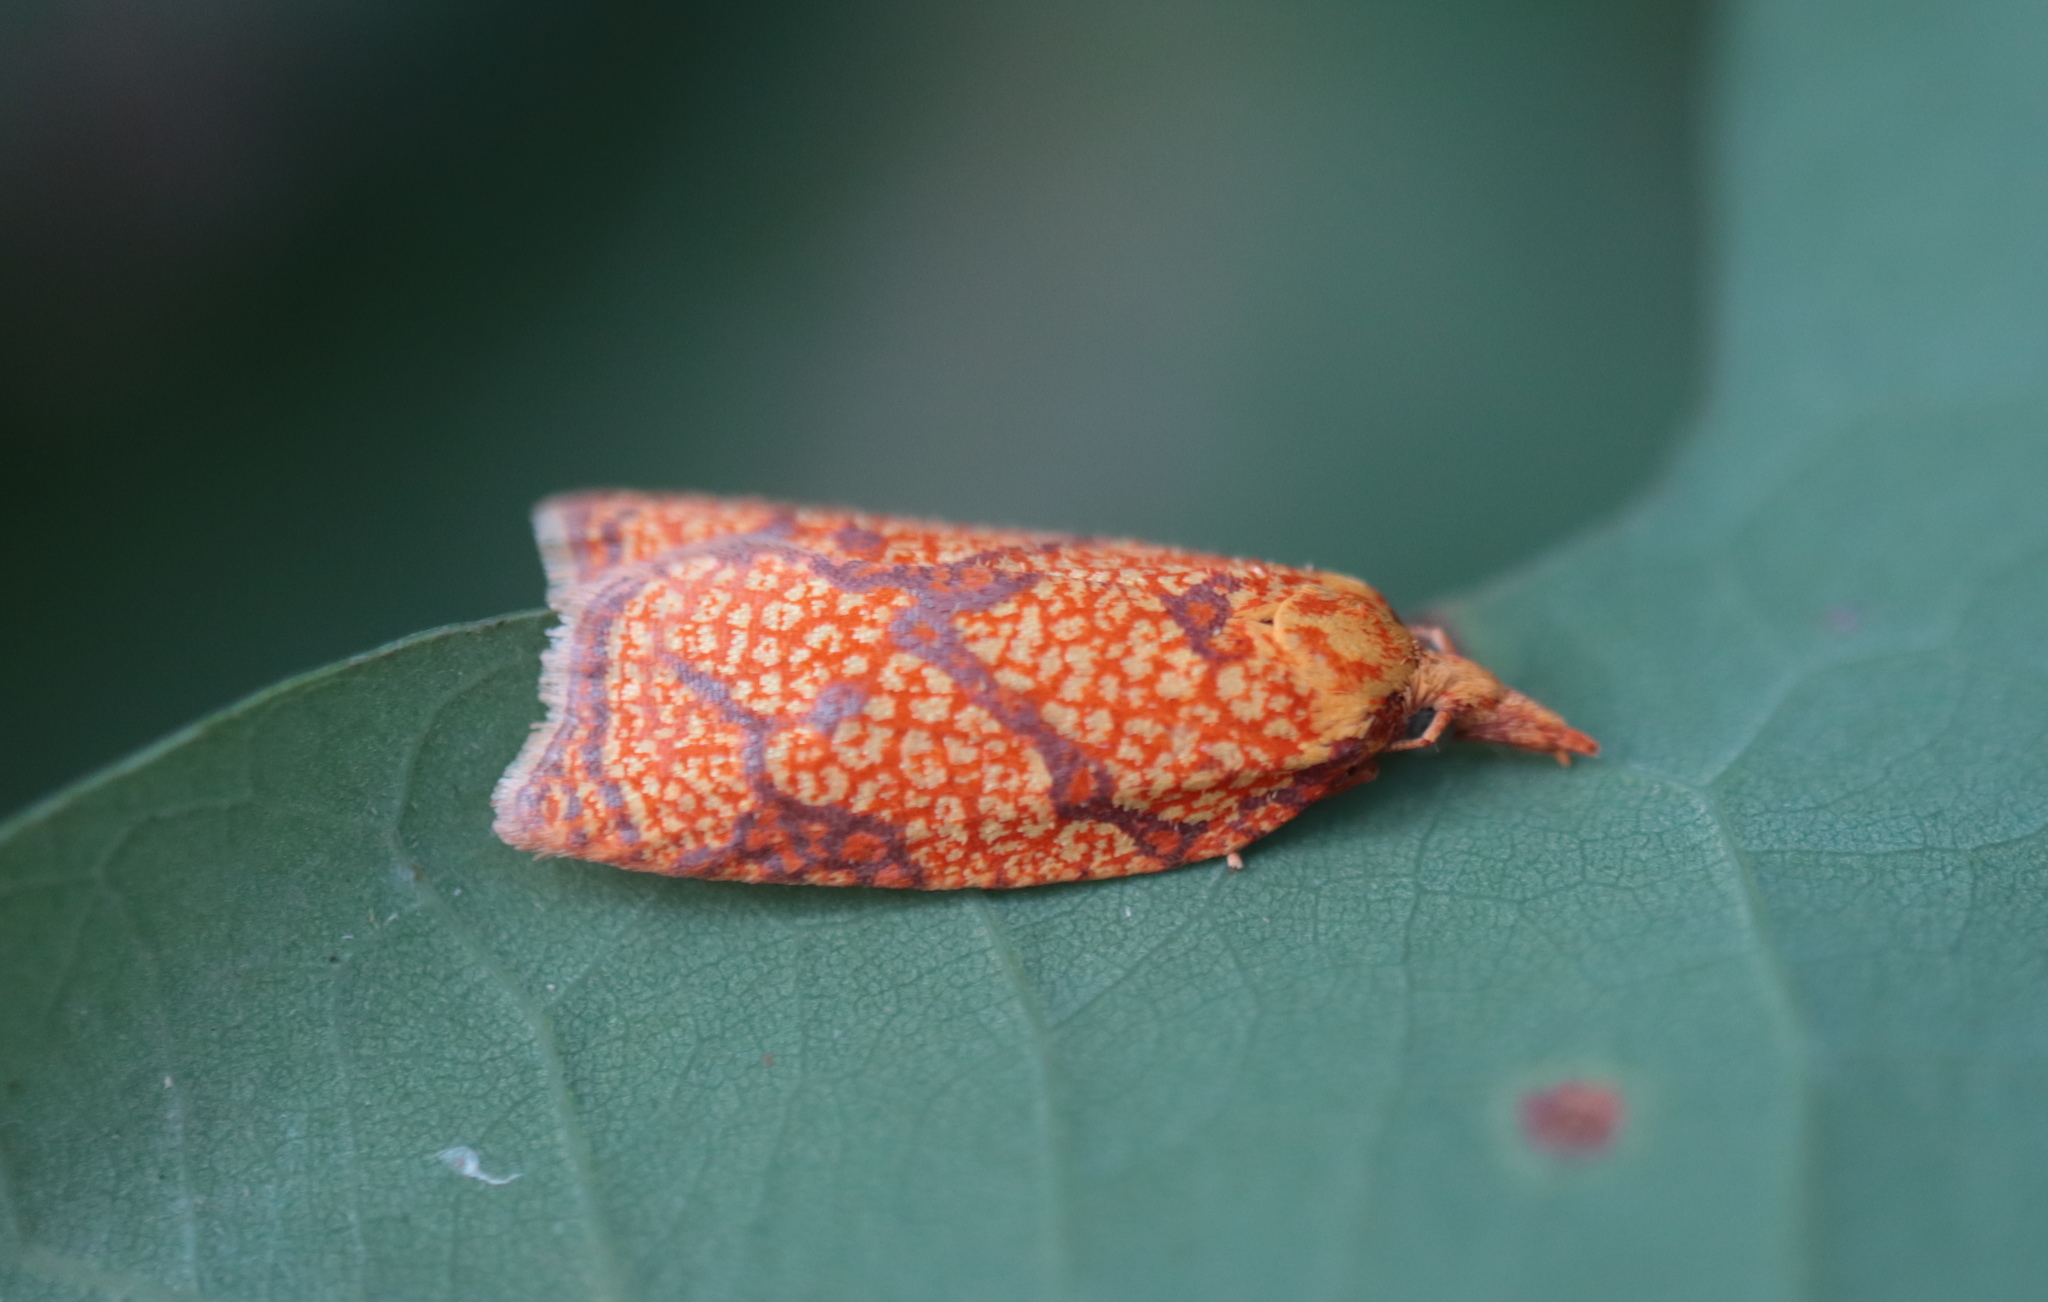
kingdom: Animalia
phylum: Arthropoda
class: Insecta
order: Lepidoptera
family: Tortricidae
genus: Cenopis
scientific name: Cenopis reticulatana
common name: Reticulated fruitworm moth
